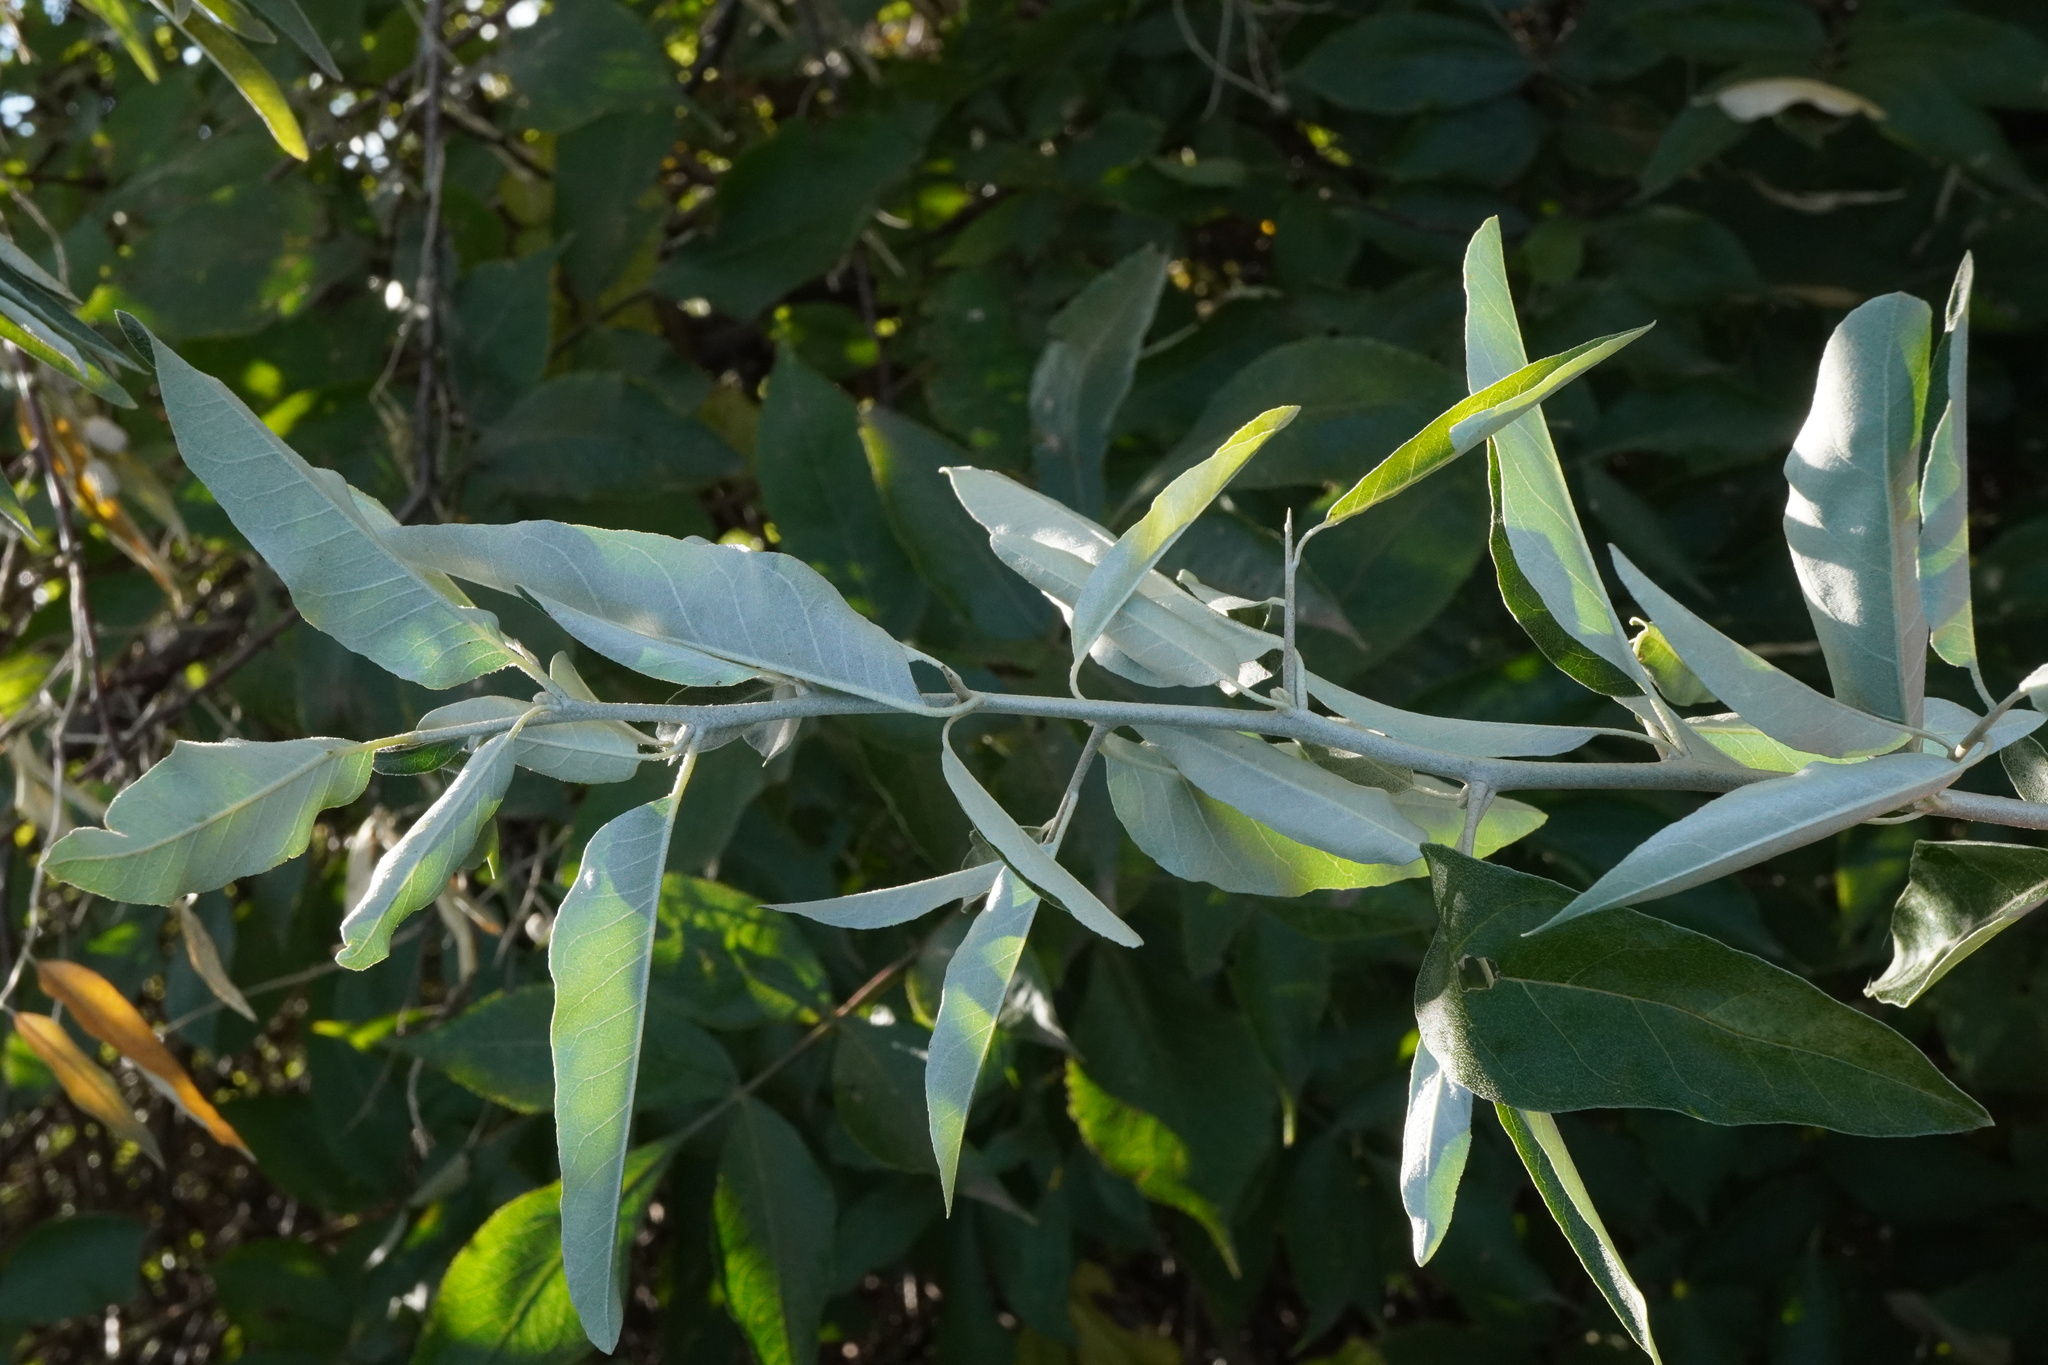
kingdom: Plantae
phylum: Tracheophyta
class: Magnoliopsida
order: Rosales
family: Elaeagnaceae
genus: Elaeagnus
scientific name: Elaeagnus angustifolia
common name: Russian olive
